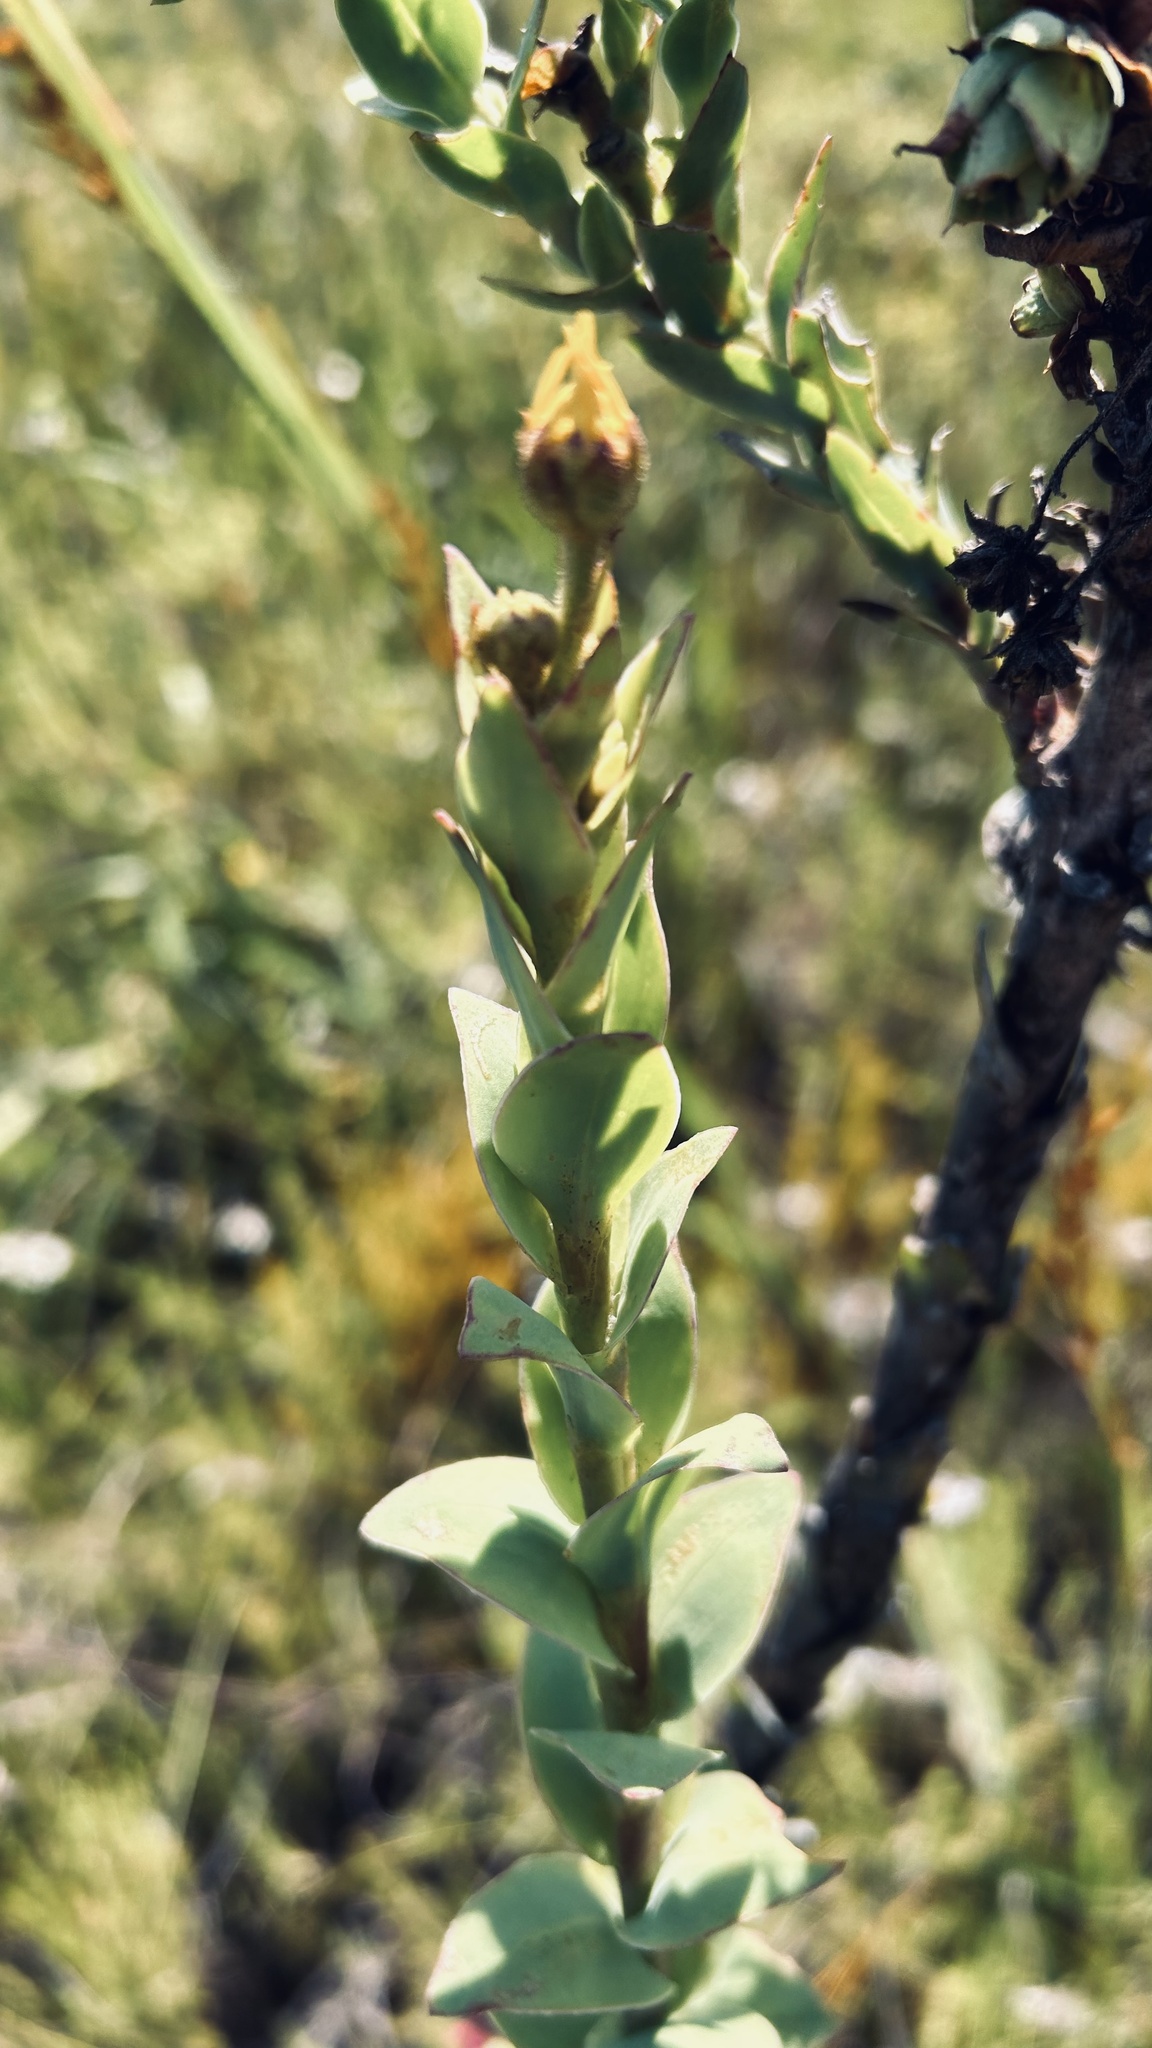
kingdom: Plantae
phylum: Tracheophyta
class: Magnoliopsida
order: Asterales
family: Asteraceae
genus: Osteospermum
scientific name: Osteospermum corymbosum
